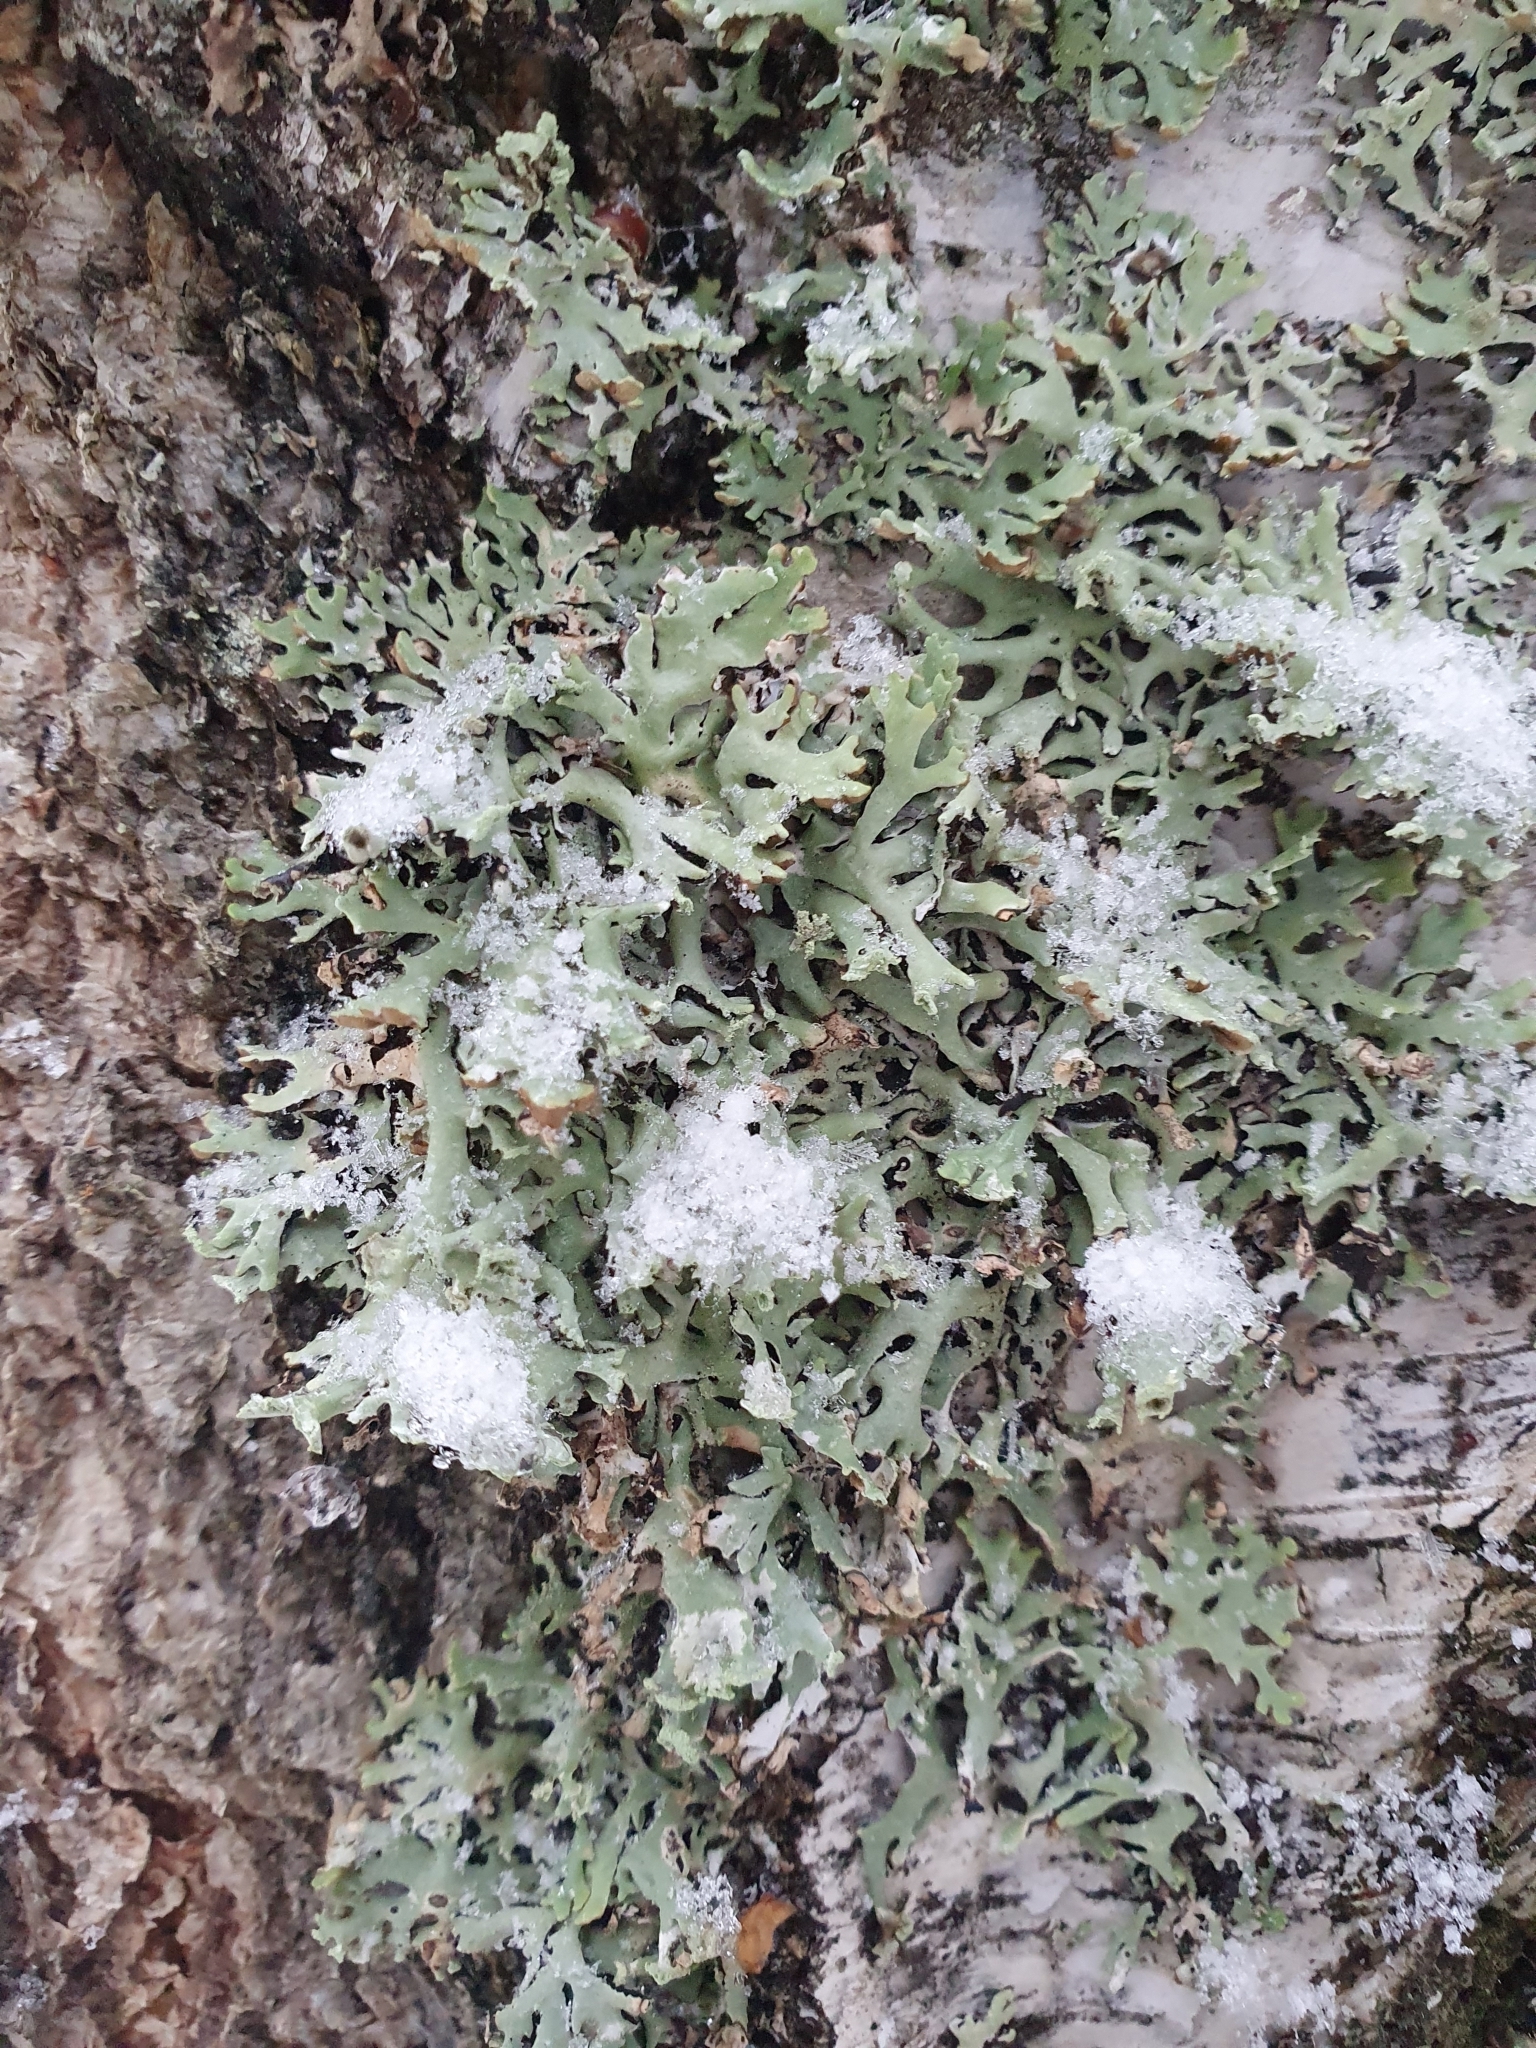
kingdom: Fungi
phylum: Ascomycota
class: Lecanoromycetes
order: Lecanorales
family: Parmeliaceae
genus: Hypogymnia
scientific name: Hypogymnia physodes
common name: Dark crottle
